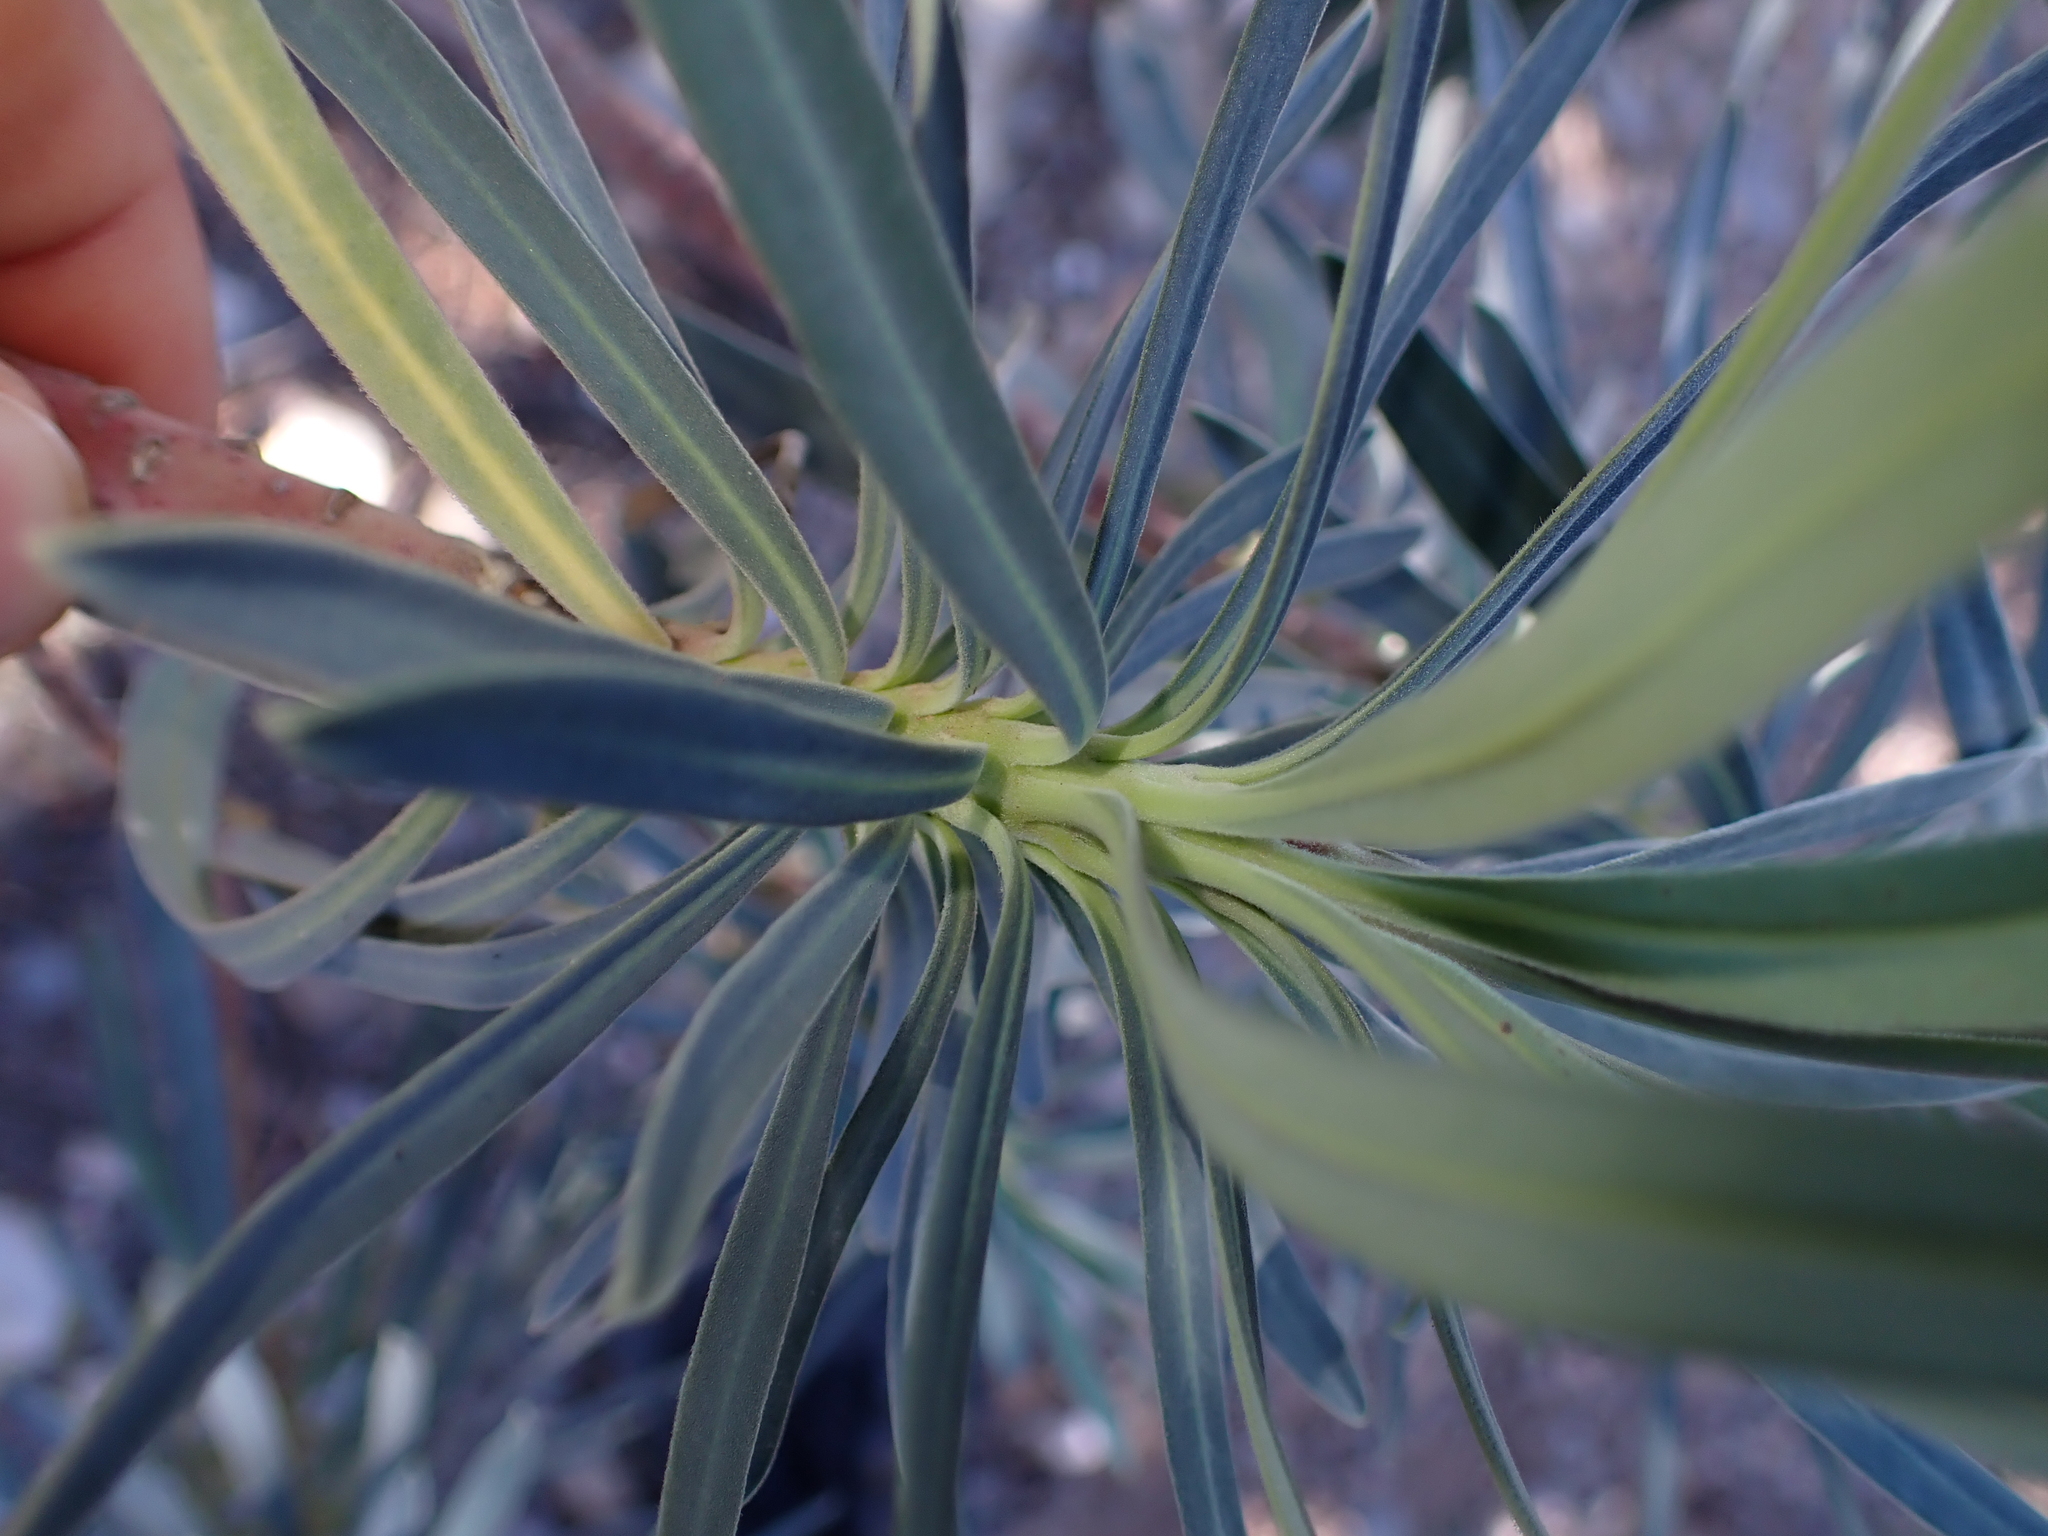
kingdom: Plantae
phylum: Tracheophyta
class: Magnoliopsida
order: Malpighiales
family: Euphorbiaceae
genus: Euphorbia
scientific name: Euphorbia characias
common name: Mediterranean spurge
